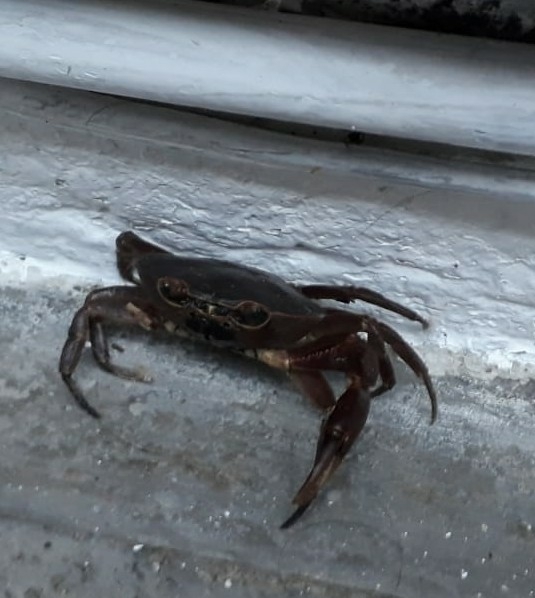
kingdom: Animalia
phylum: Arthropoda
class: Malacostraca
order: Decapoda
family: Pseudothelphusidae
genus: Pseudothelphusa
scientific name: Pseudothelphusa morelosis
